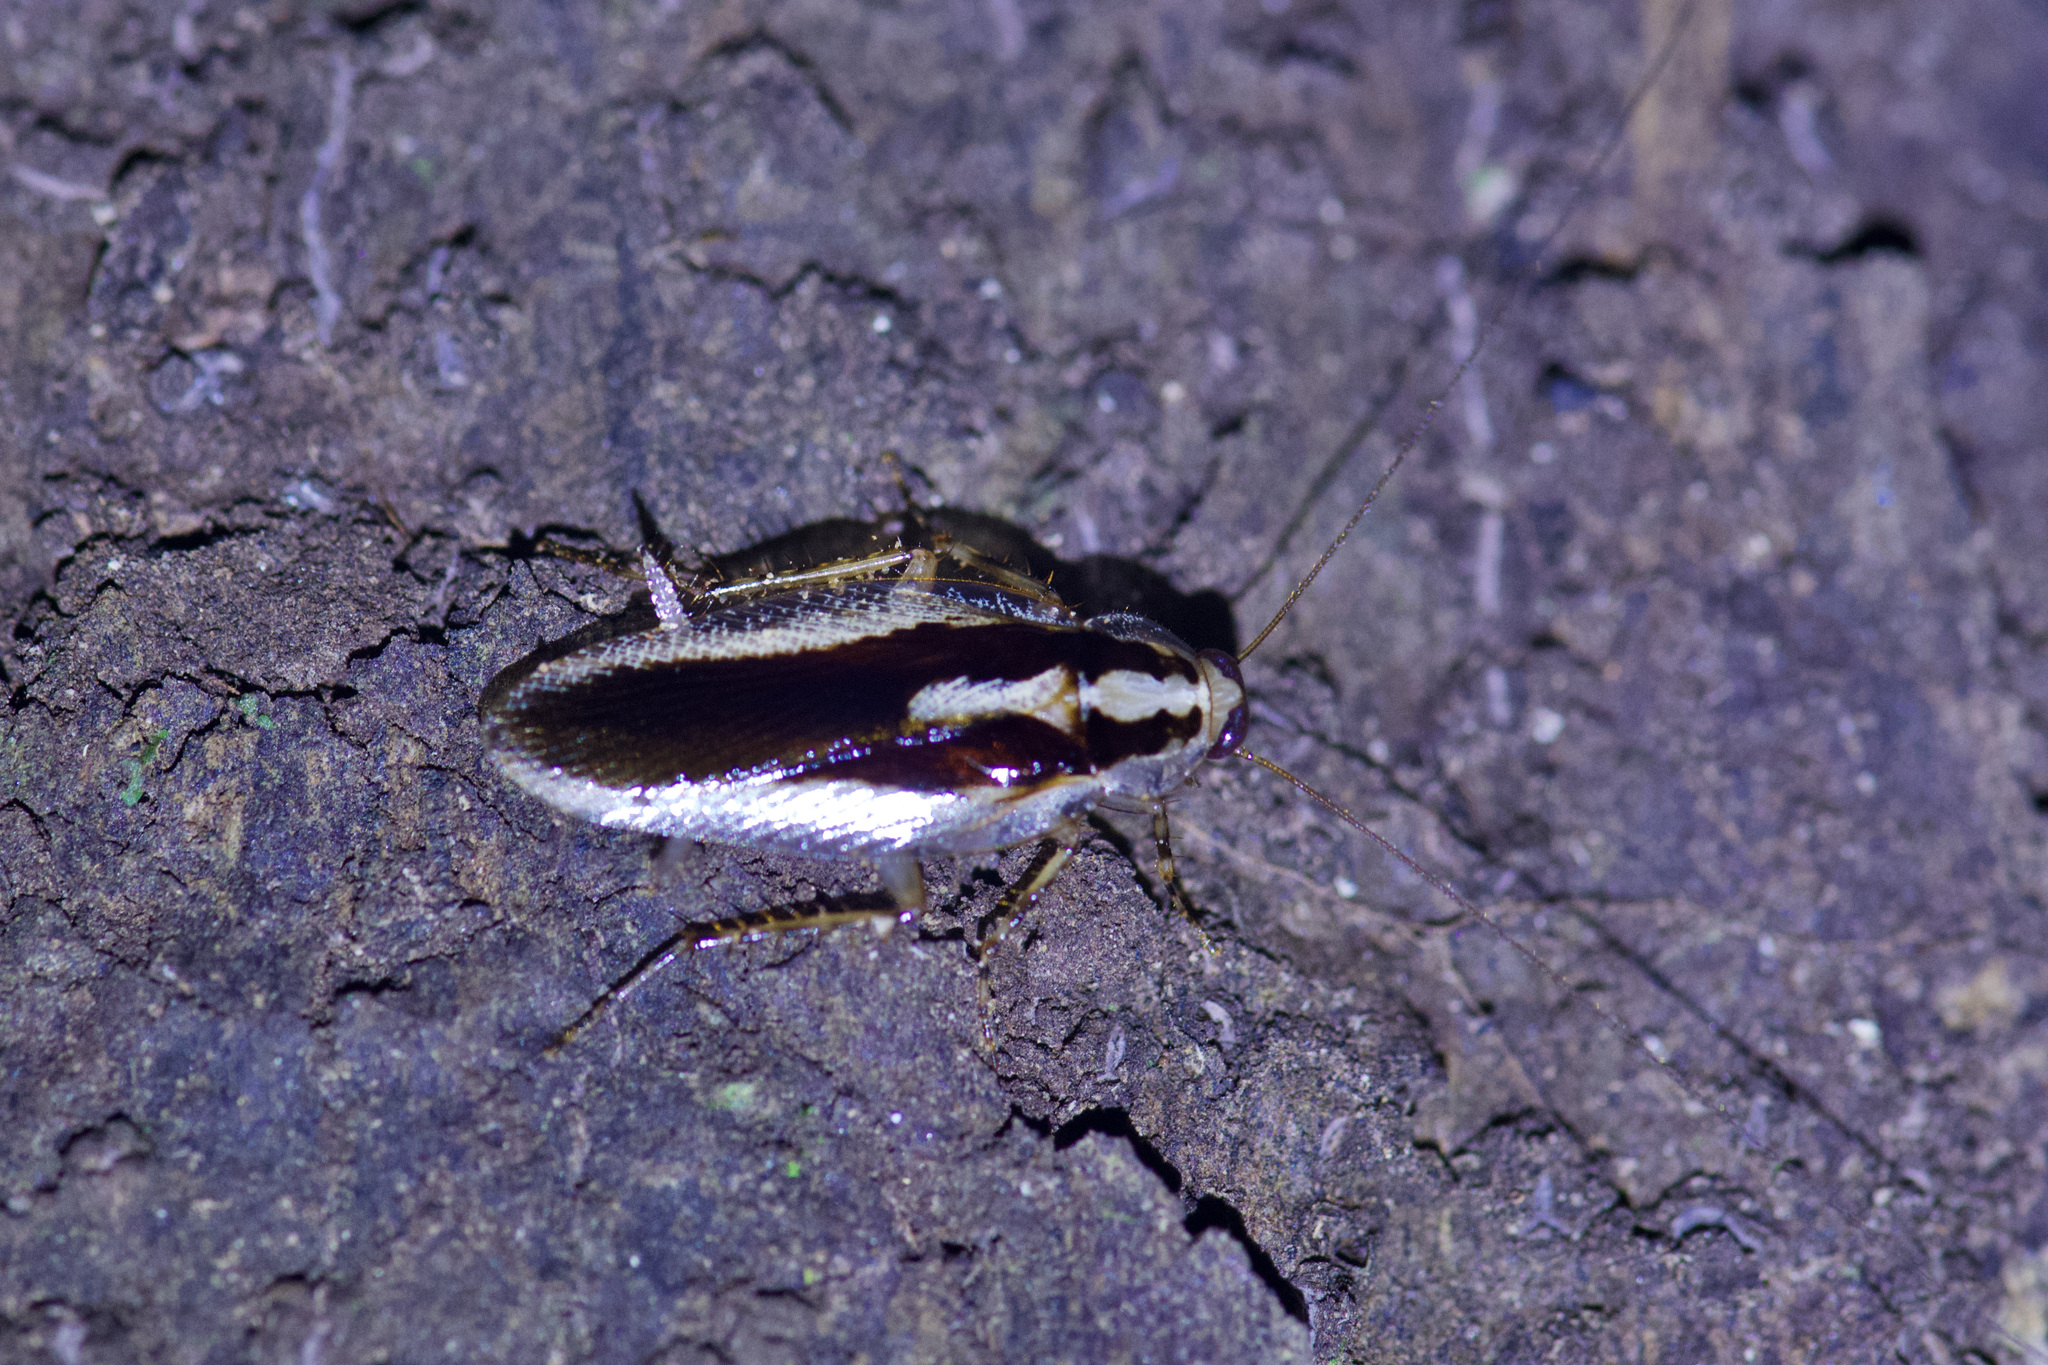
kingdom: Animalia
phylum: Arthropoda
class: Insecta
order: Blattodea
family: Ectobiidae
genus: Dendroblatta
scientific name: Dendroblatta sobrina
